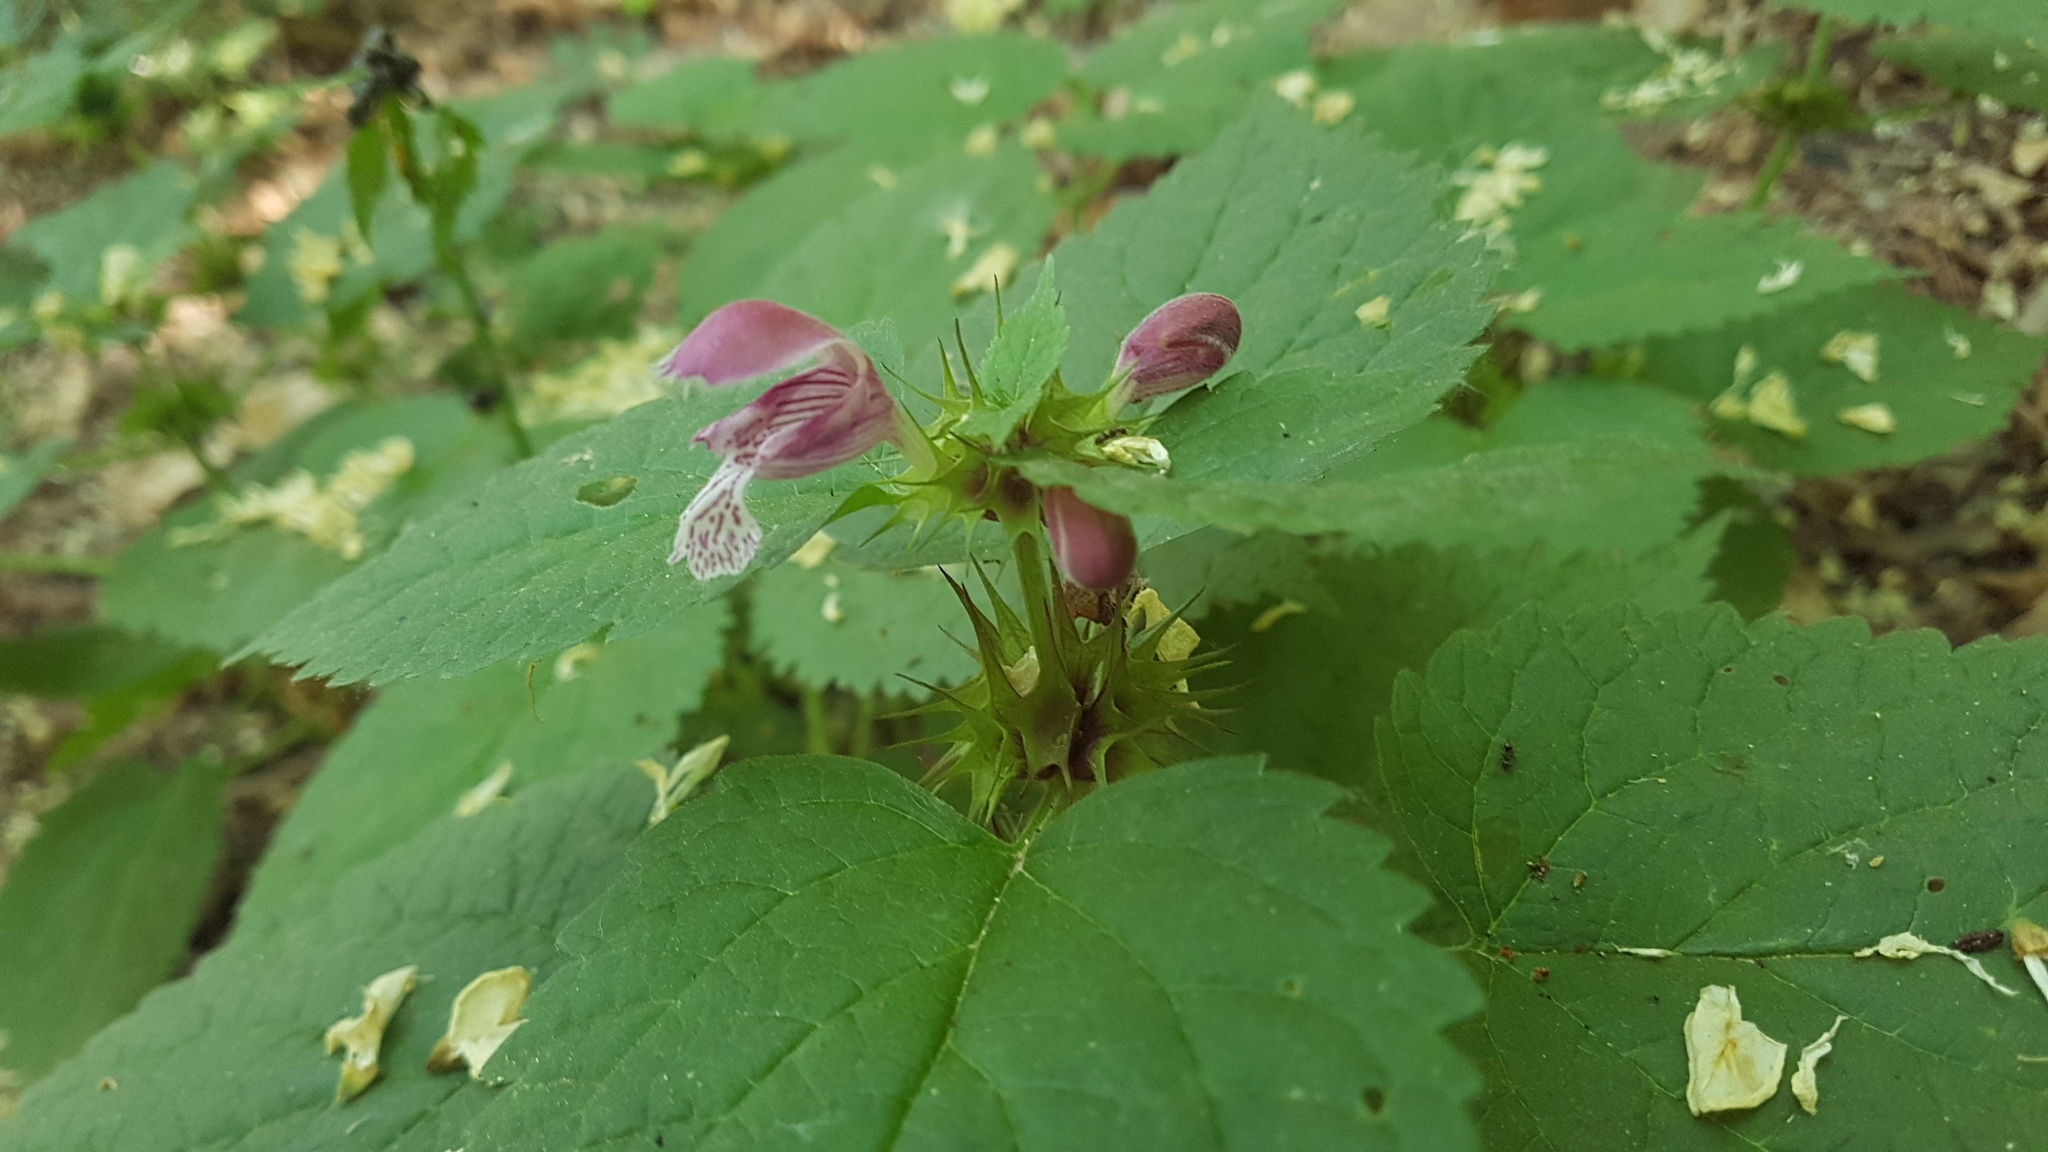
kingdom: Plantae
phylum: Tracheophyta
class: Magnoliopsida
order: Lamiales
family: Lamiaceae
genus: Lamium
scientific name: Lamium orvala
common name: Balm-leaved archangel
